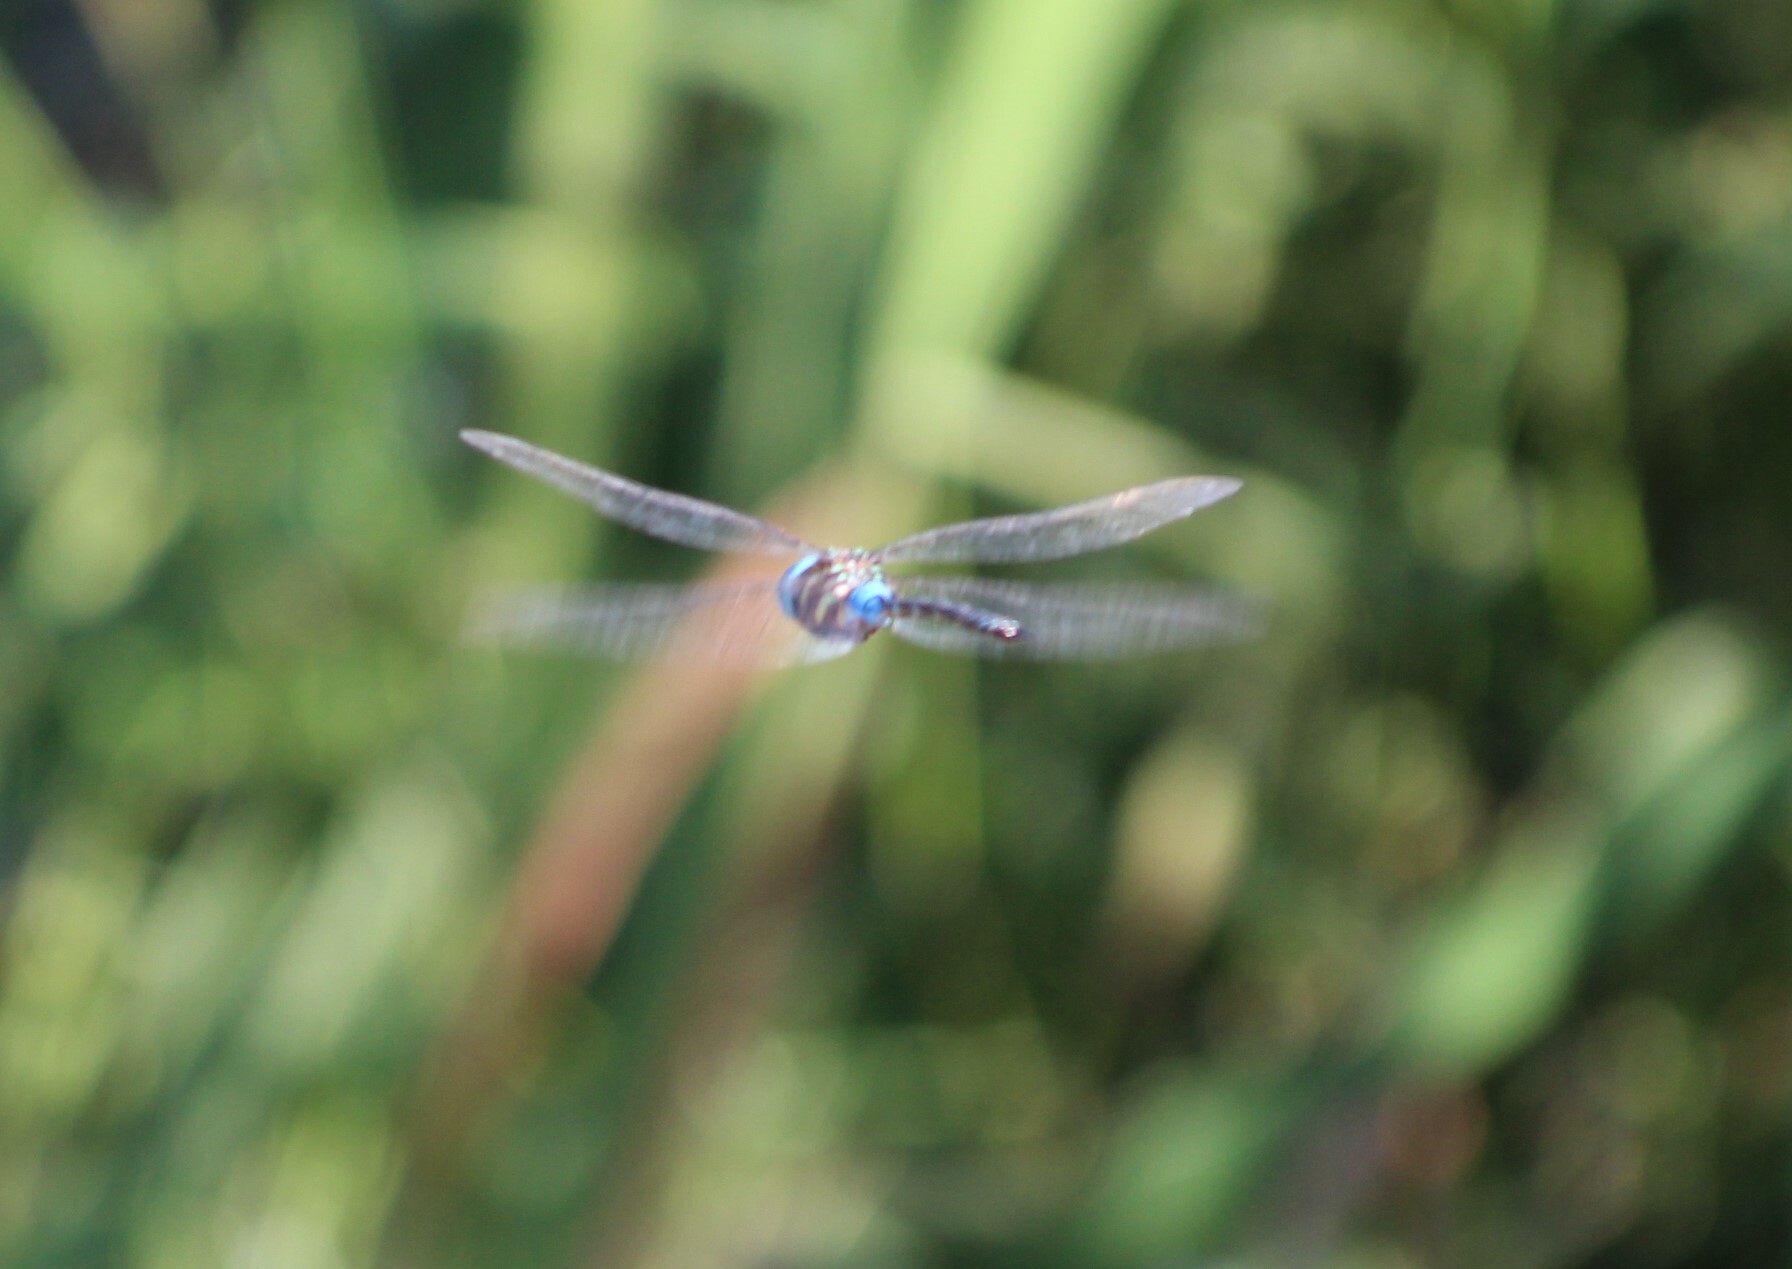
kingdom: Animalia
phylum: Arthropoda
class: Insecta
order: Odonata
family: Aeshnidae
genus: Anaciaeschna
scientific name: Anaciaeschna triangulifera
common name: Evening hawker
